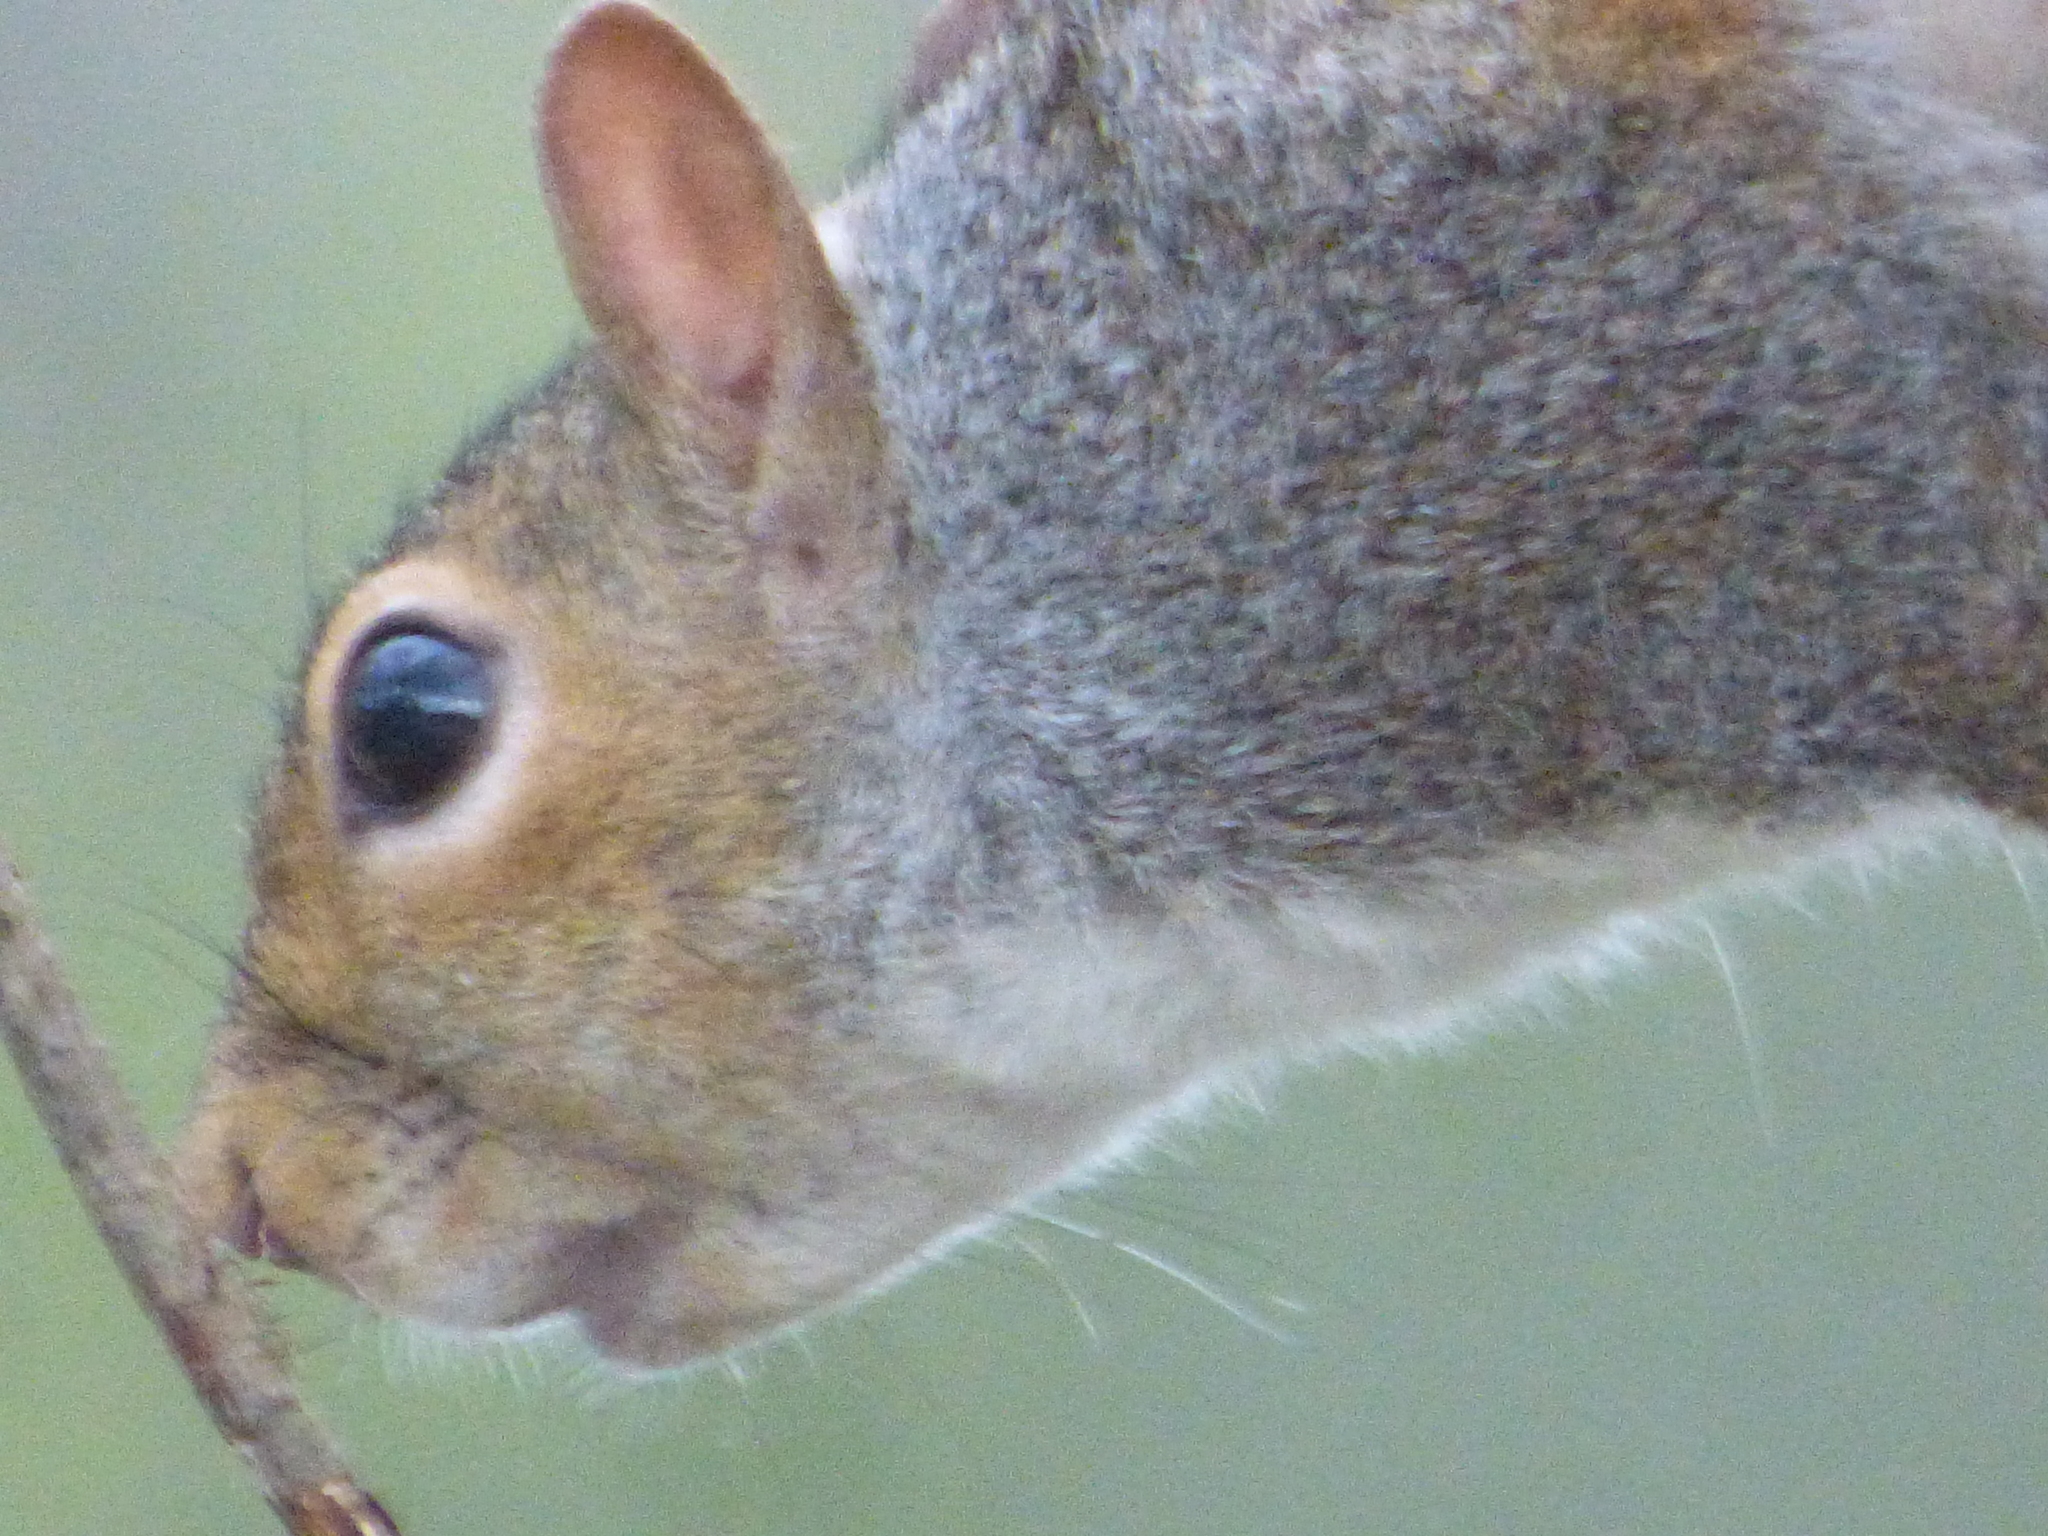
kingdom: Animalia
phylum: Chordata
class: Mammalia
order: Rodentia
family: Sciuridae
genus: Sciurus
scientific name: Sciurus carolinensis
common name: Eastern gray squirrel
